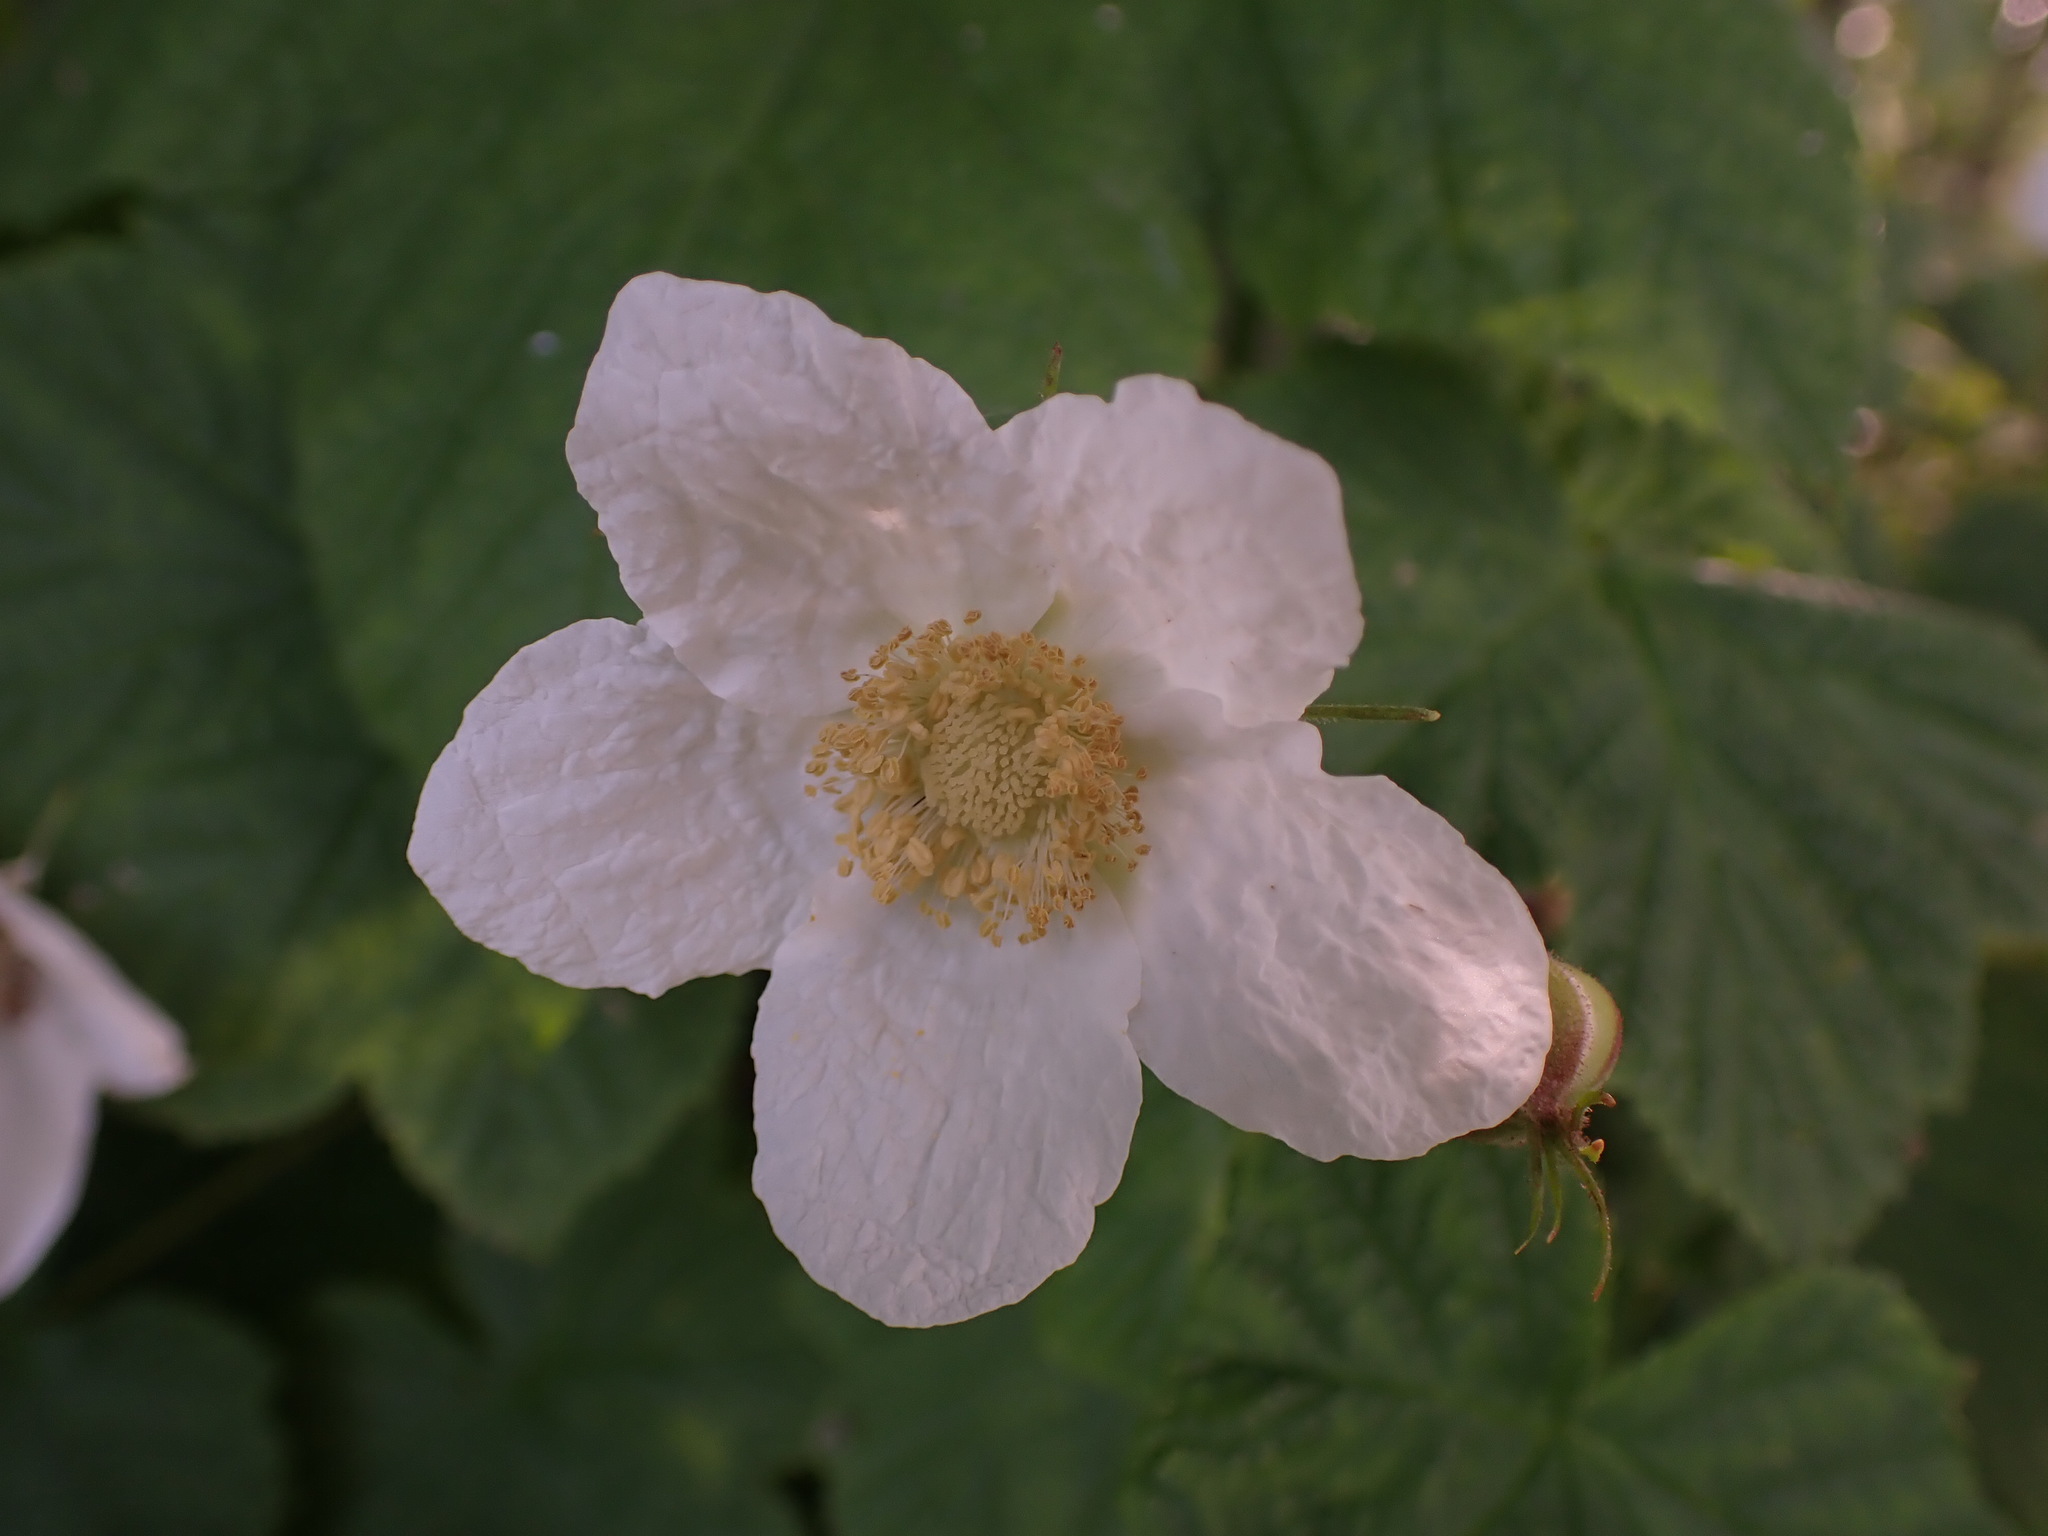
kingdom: Plantae
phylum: Tracheophyta
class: Magnoliopsida
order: Rosales
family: Rosaceae
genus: Rubus
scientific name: Rubus parviflorus
